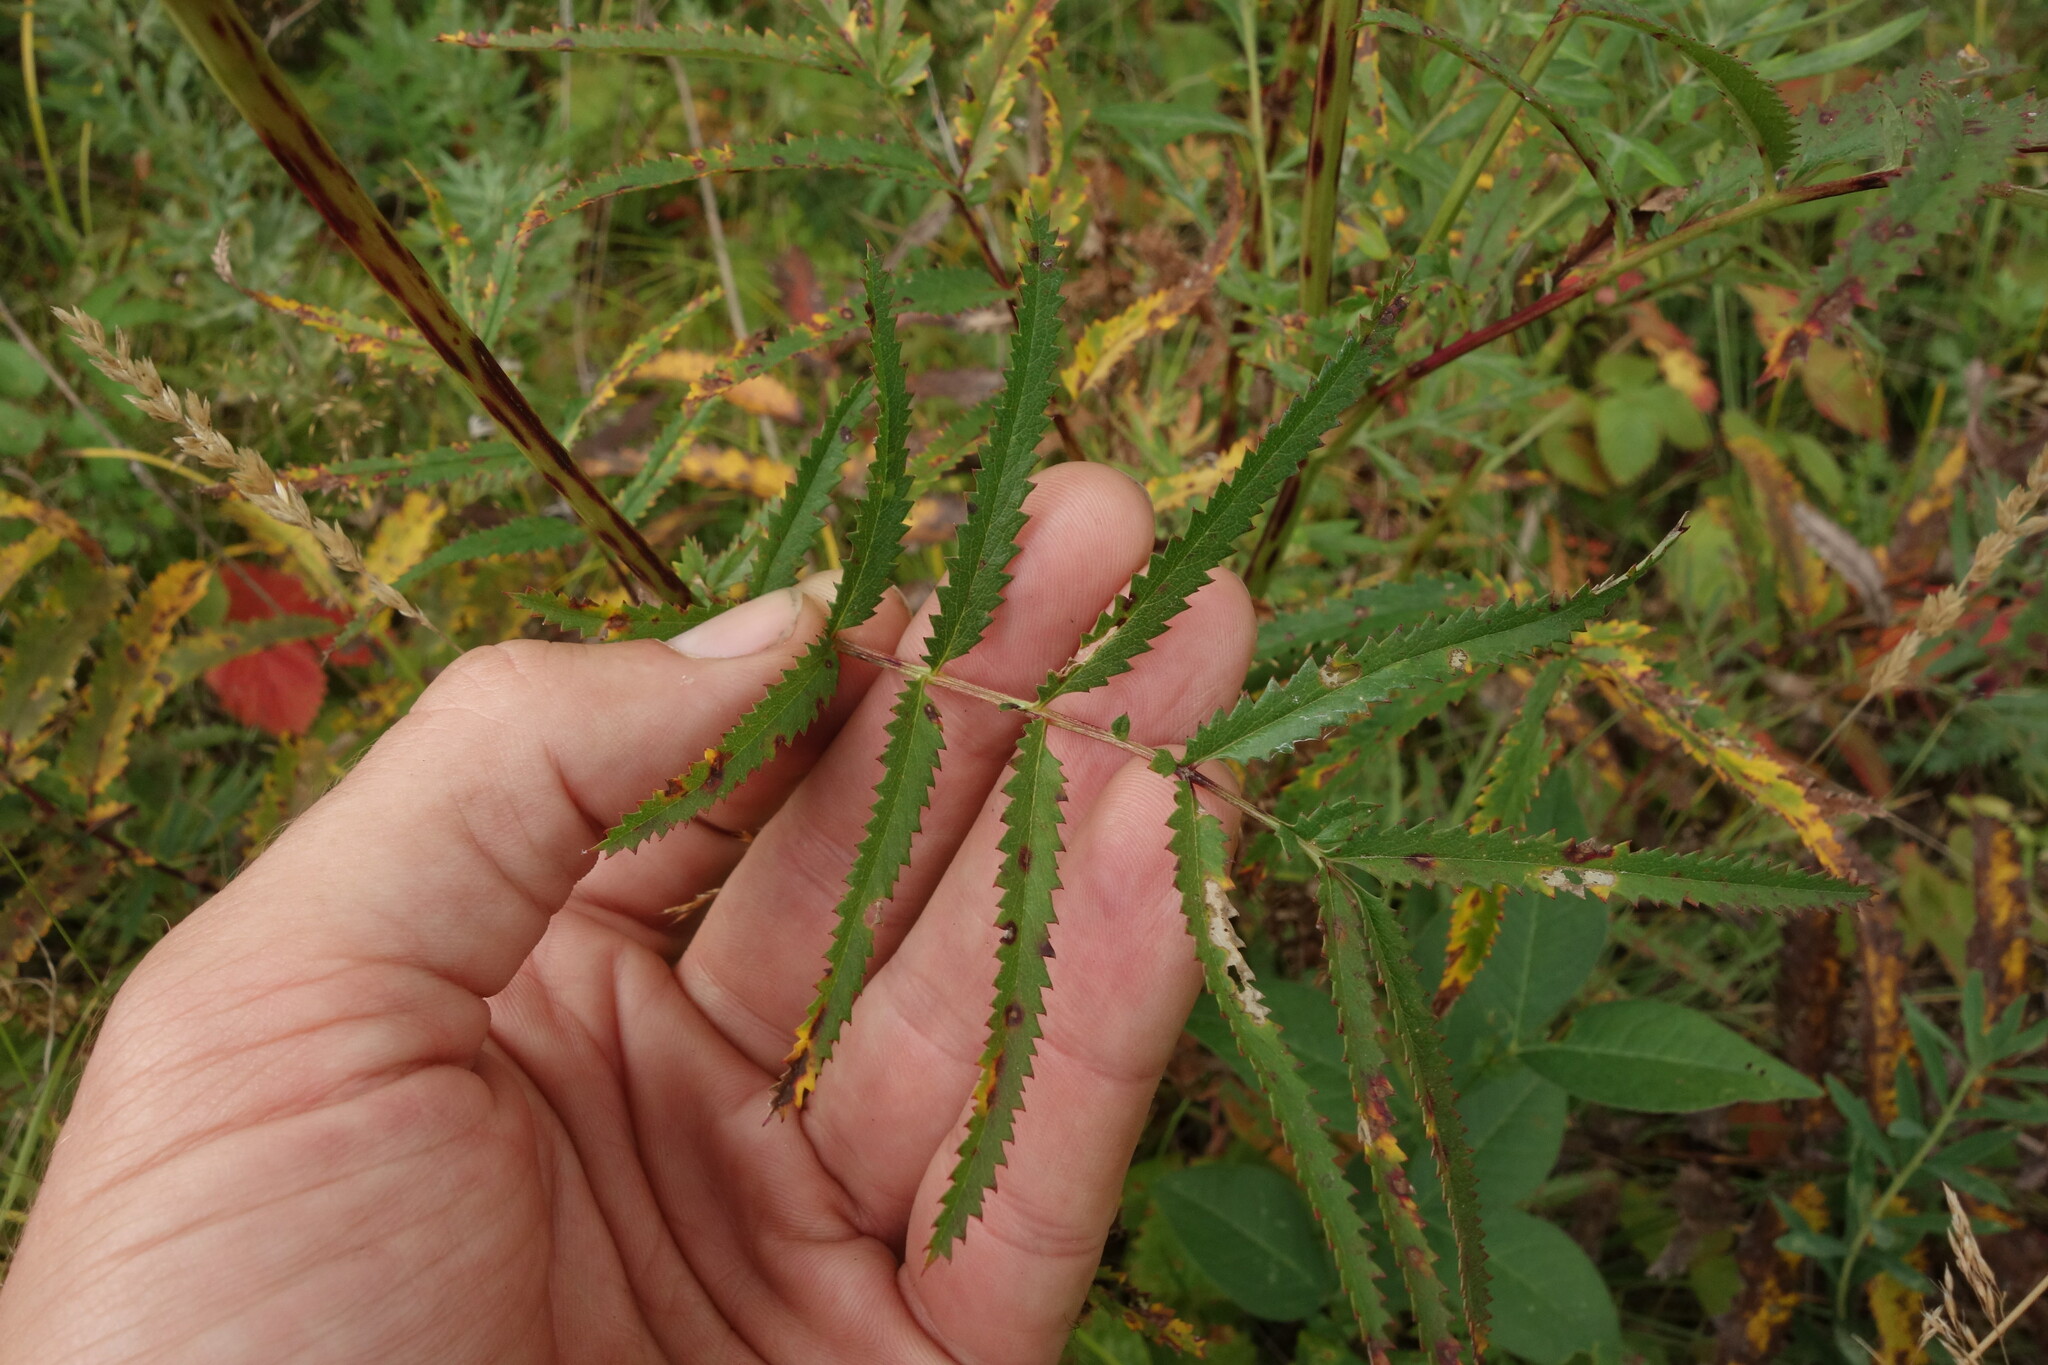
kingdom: Plantae
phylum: Tracheophyta
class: Magnoliopsida
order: Rosales
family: Rosaceae
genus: Poterium
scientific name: Poterium tenuifolium
